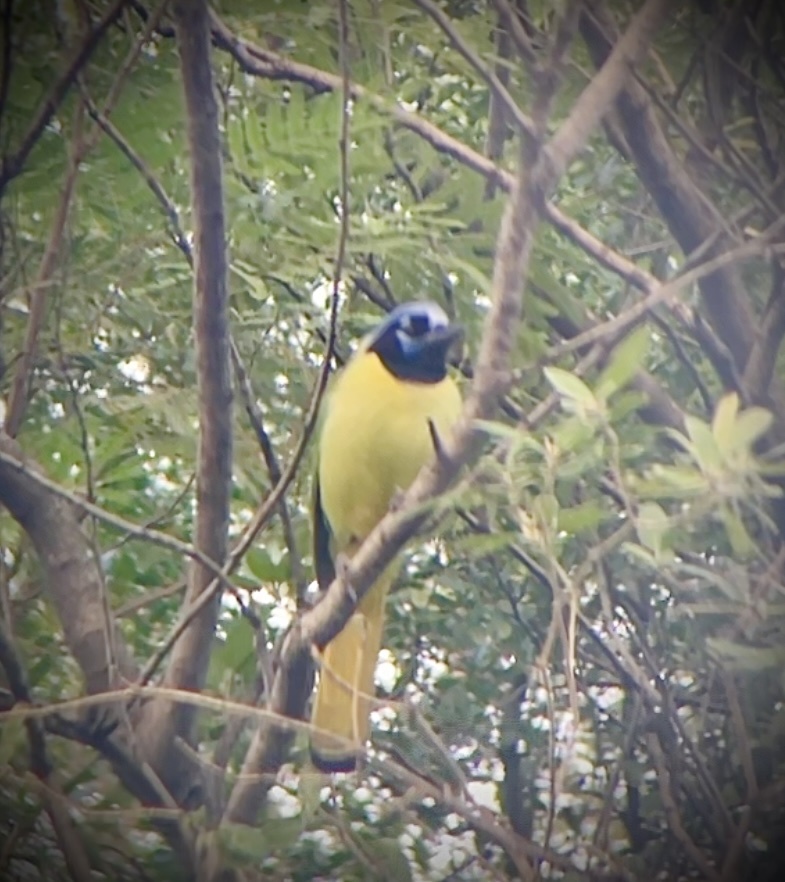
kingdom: Animalia
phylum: Chordata
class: Aves
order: Passeriformes
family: Corvidae
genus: Cyanocorax
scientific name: Cyanocorax yncas
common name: Green jay
